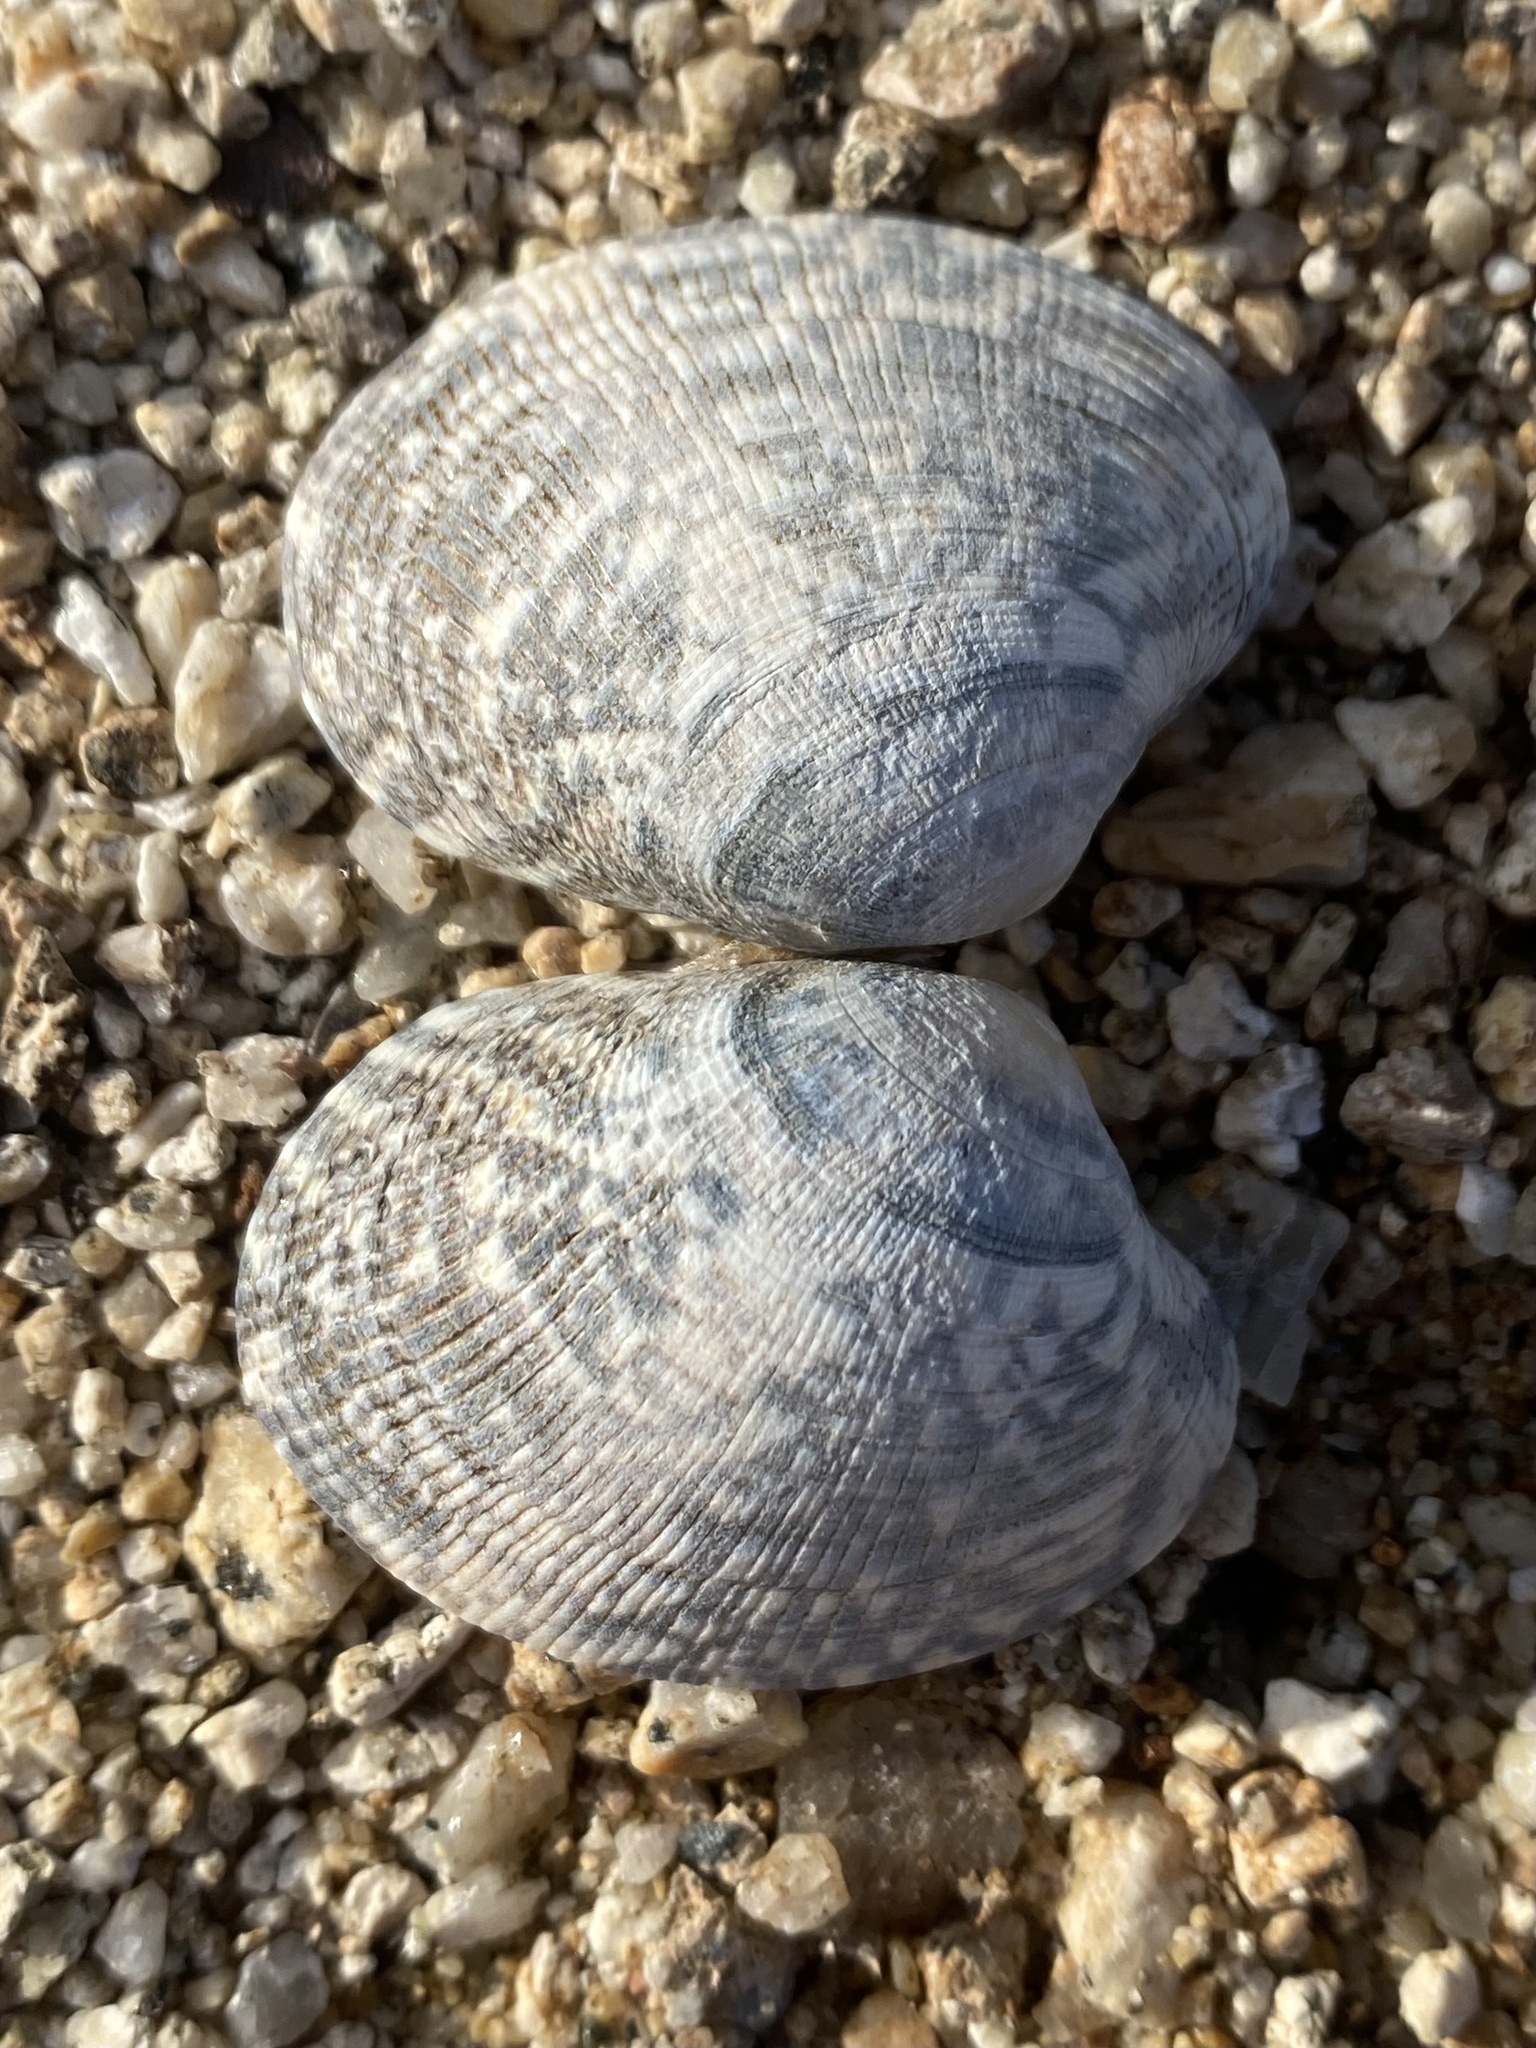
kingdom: Animalia
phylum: Mollusca
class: Bivalvia
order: Venerida
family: Veneridae
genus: Ruditapes
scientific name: Ruditapes philippinarum
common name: Manila clam
